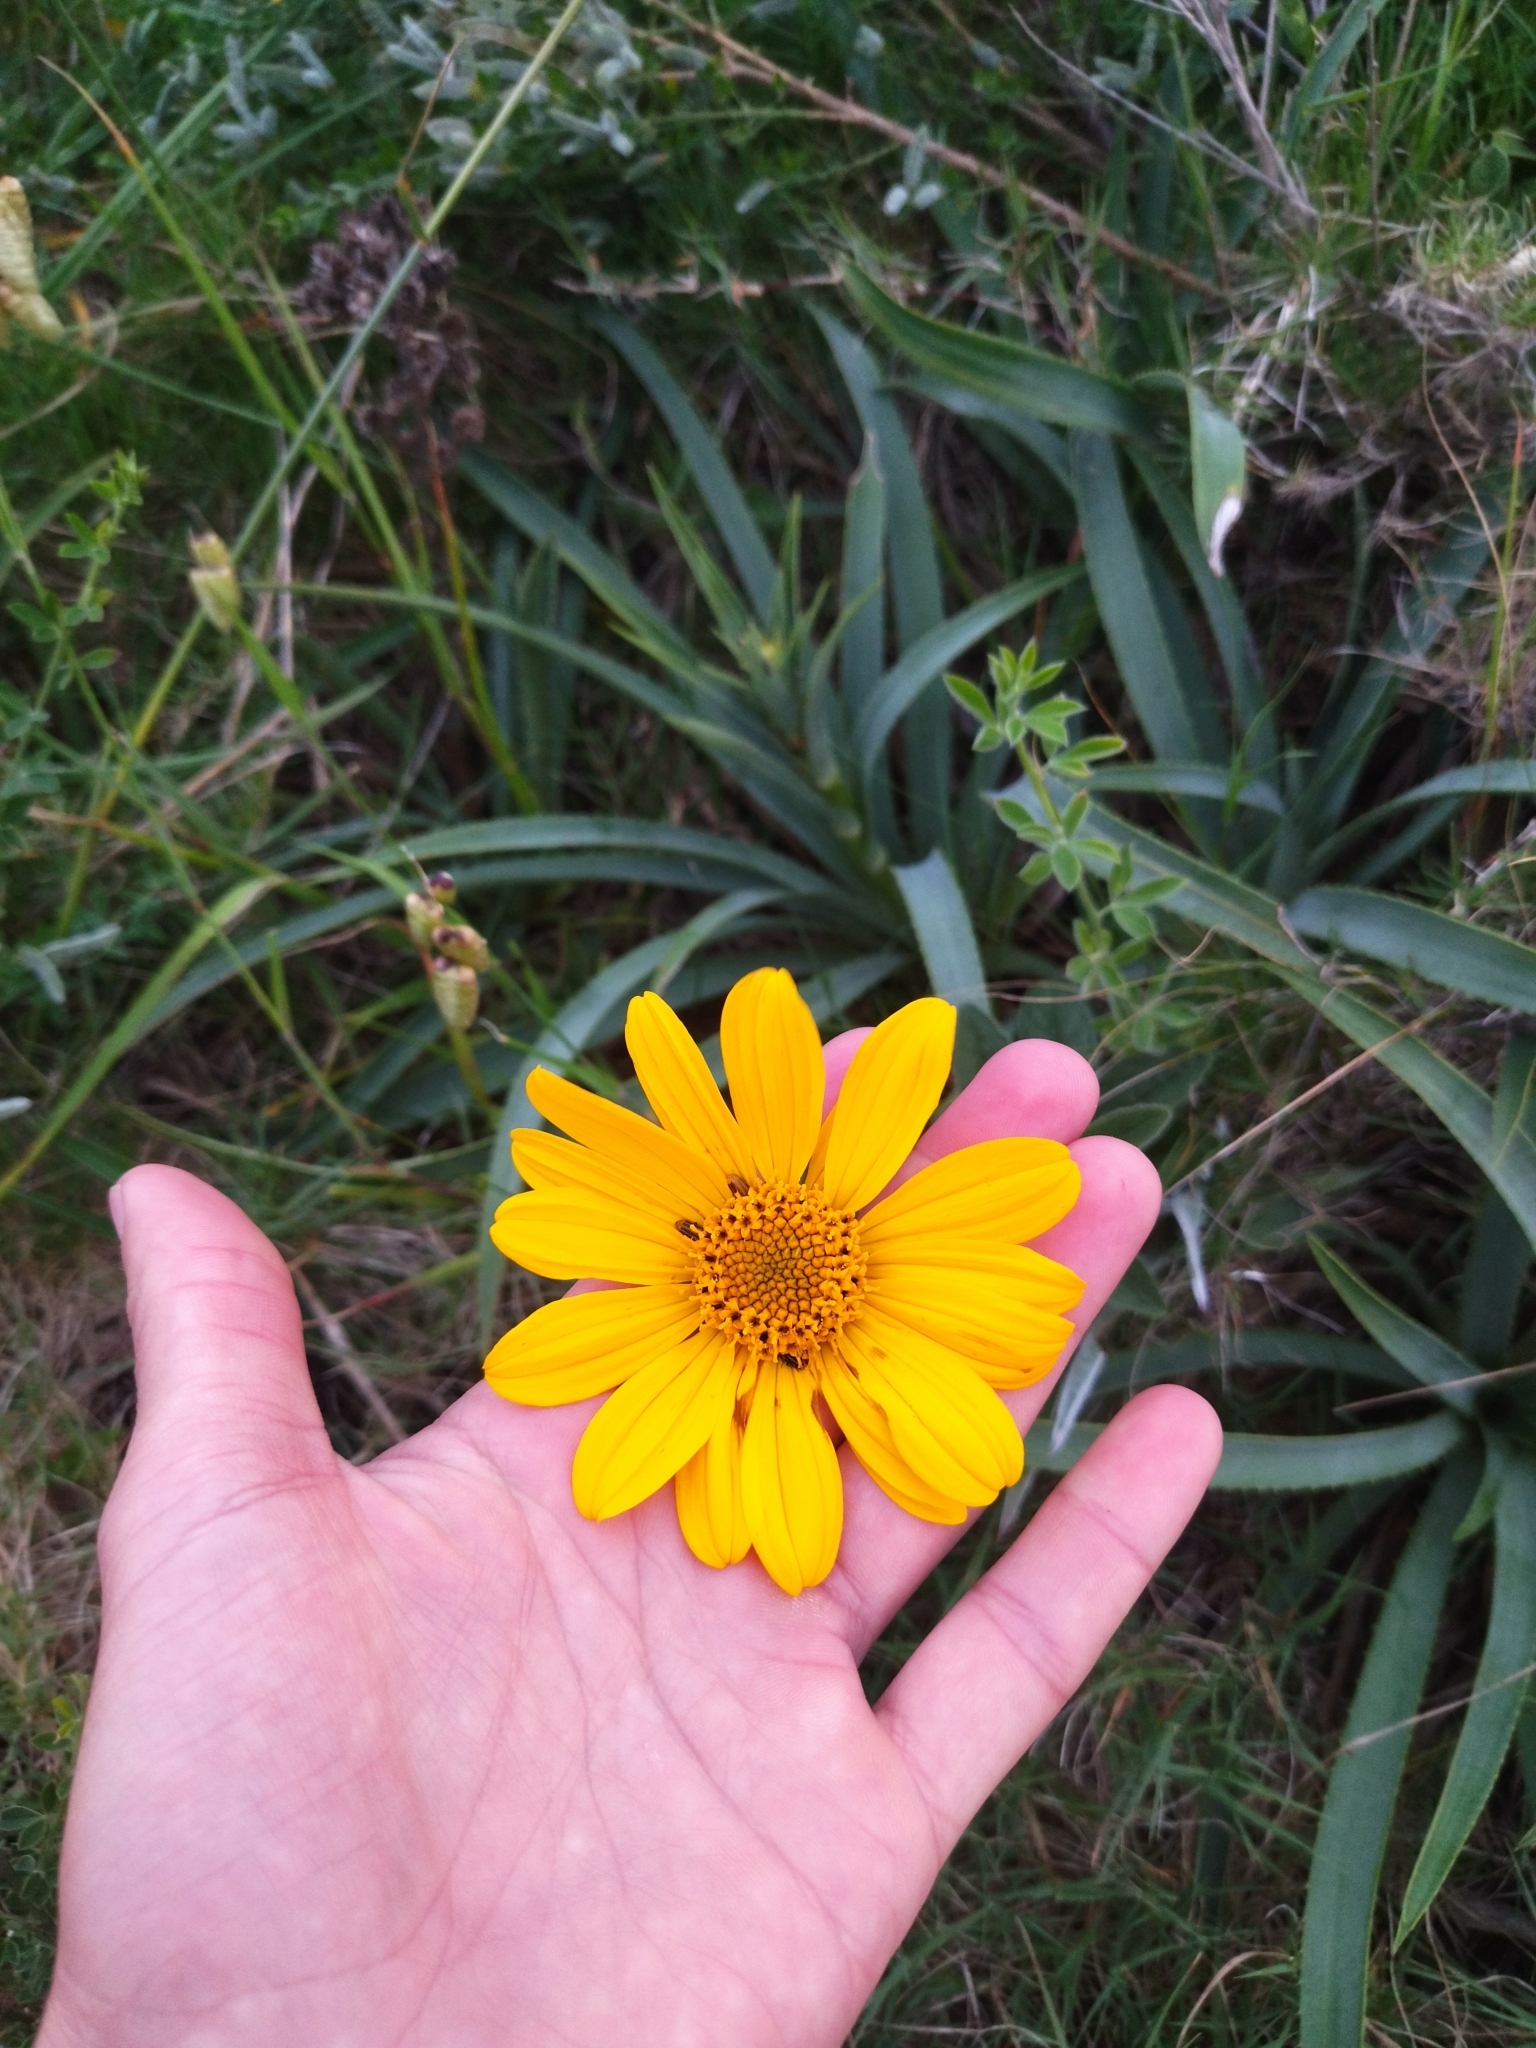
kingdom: Plantae
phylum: Tracheophyta
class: Magnoliopsida
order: Asterales
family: Asteraceae
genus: Wedelia
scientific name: Wedelia montevidensis
